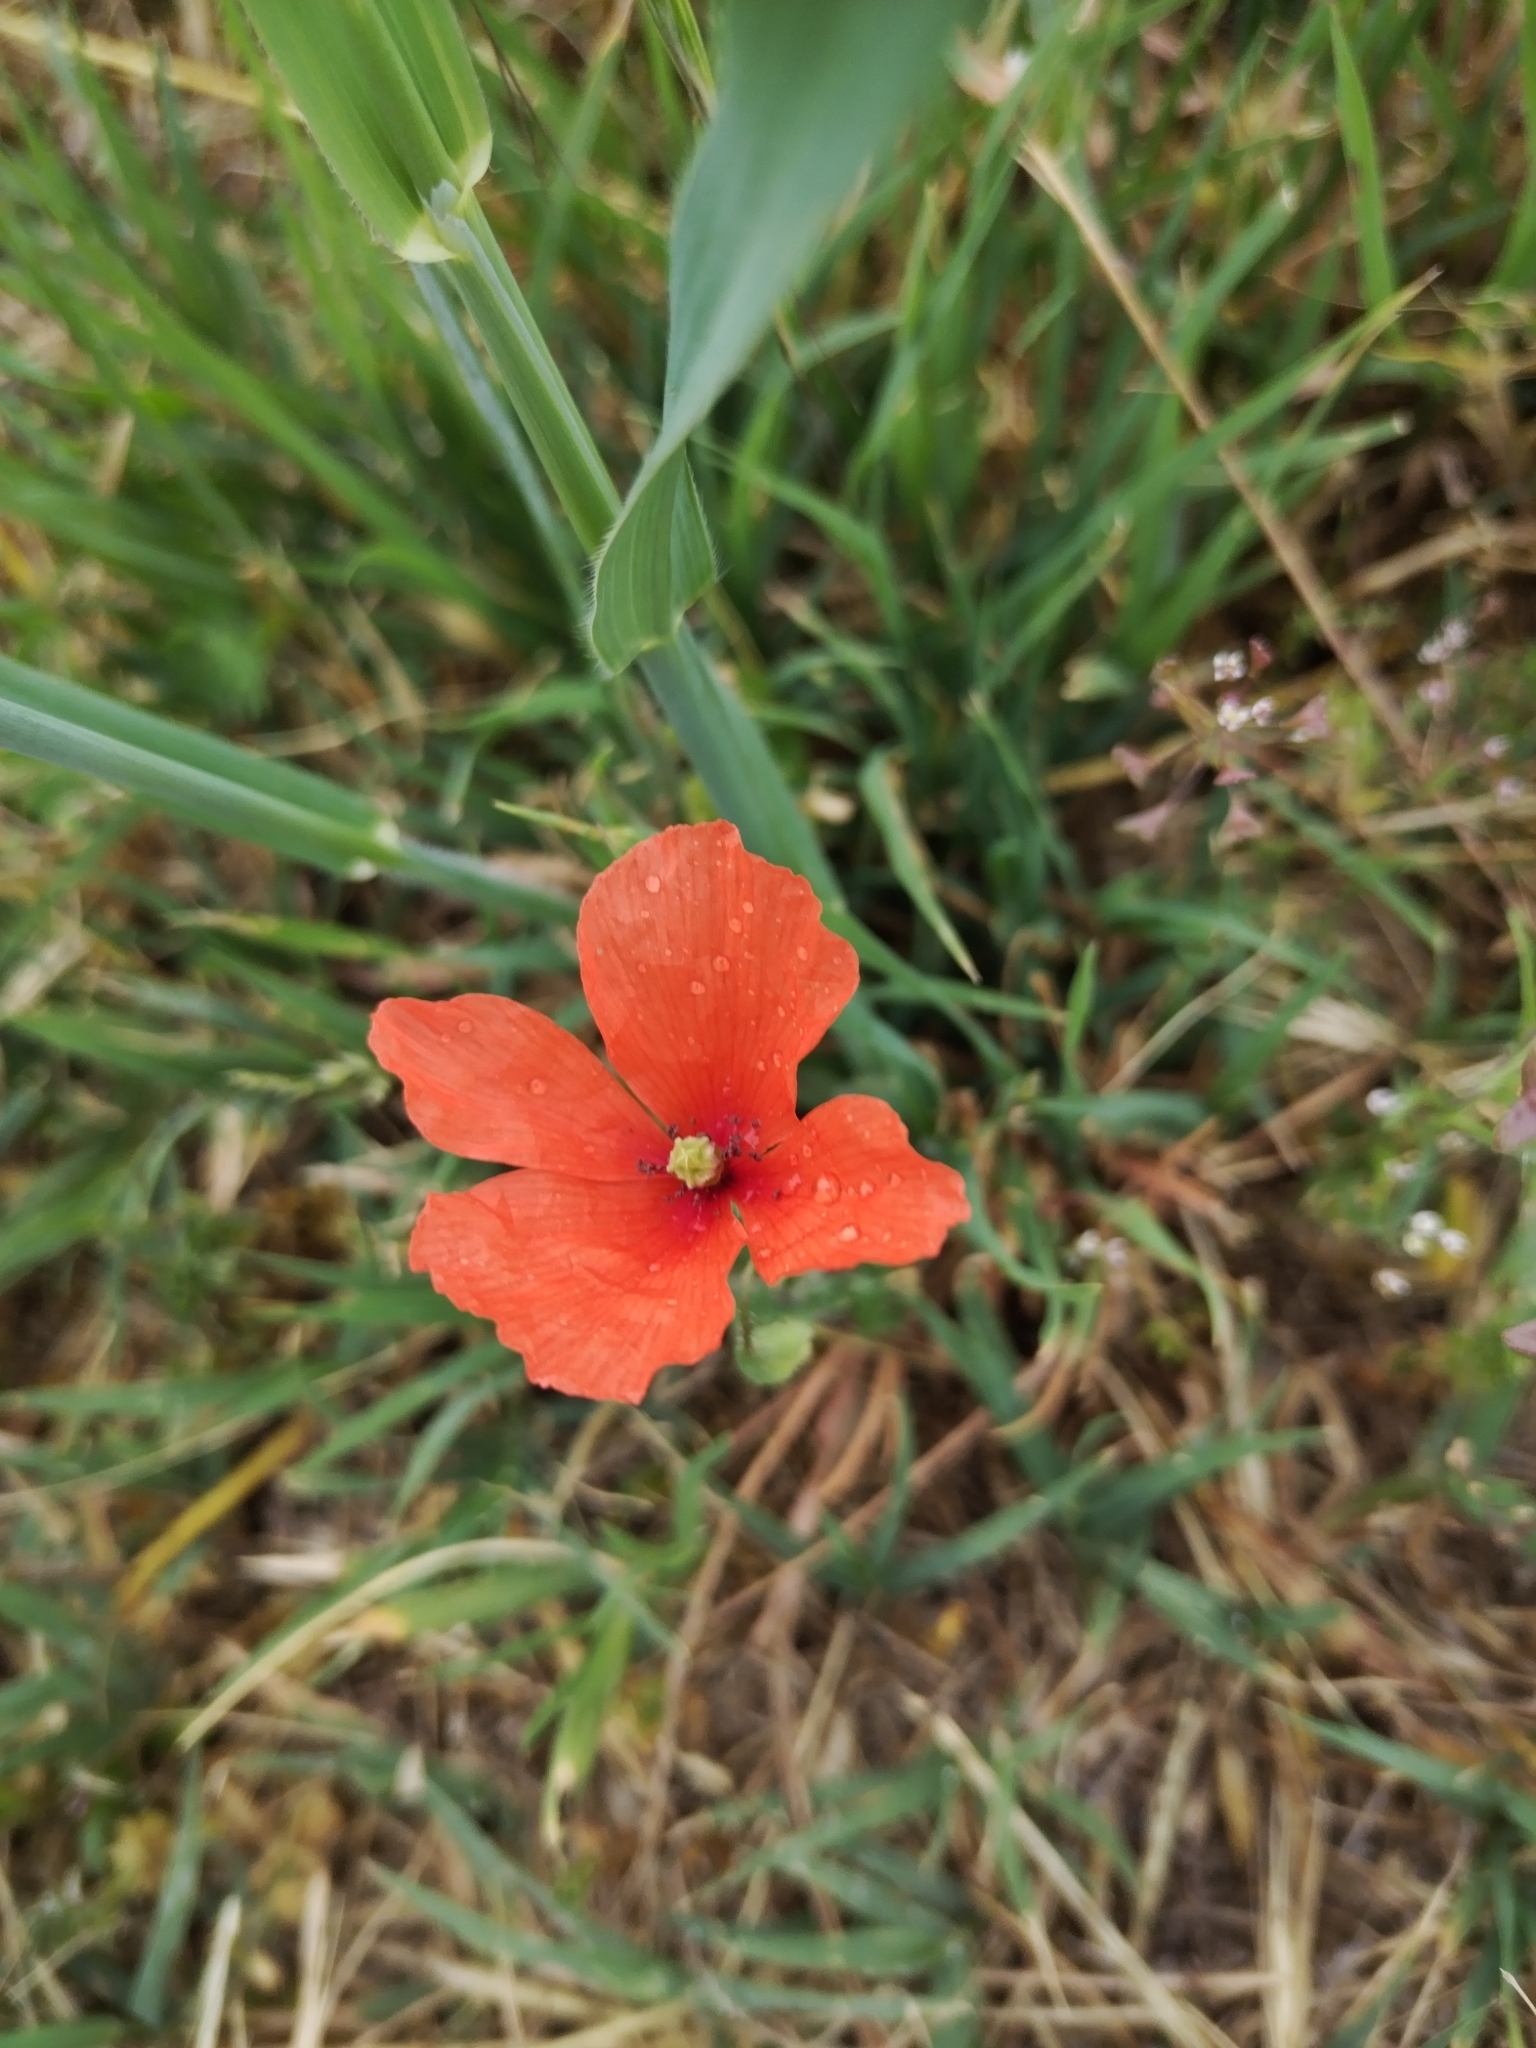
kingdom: Plantae
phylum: Tracheophyta
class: Magnoliopsida
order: Ranunculales
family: Papaveraceae
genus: Papaver
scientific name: Papaver dubium
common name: Long-headed poppy
